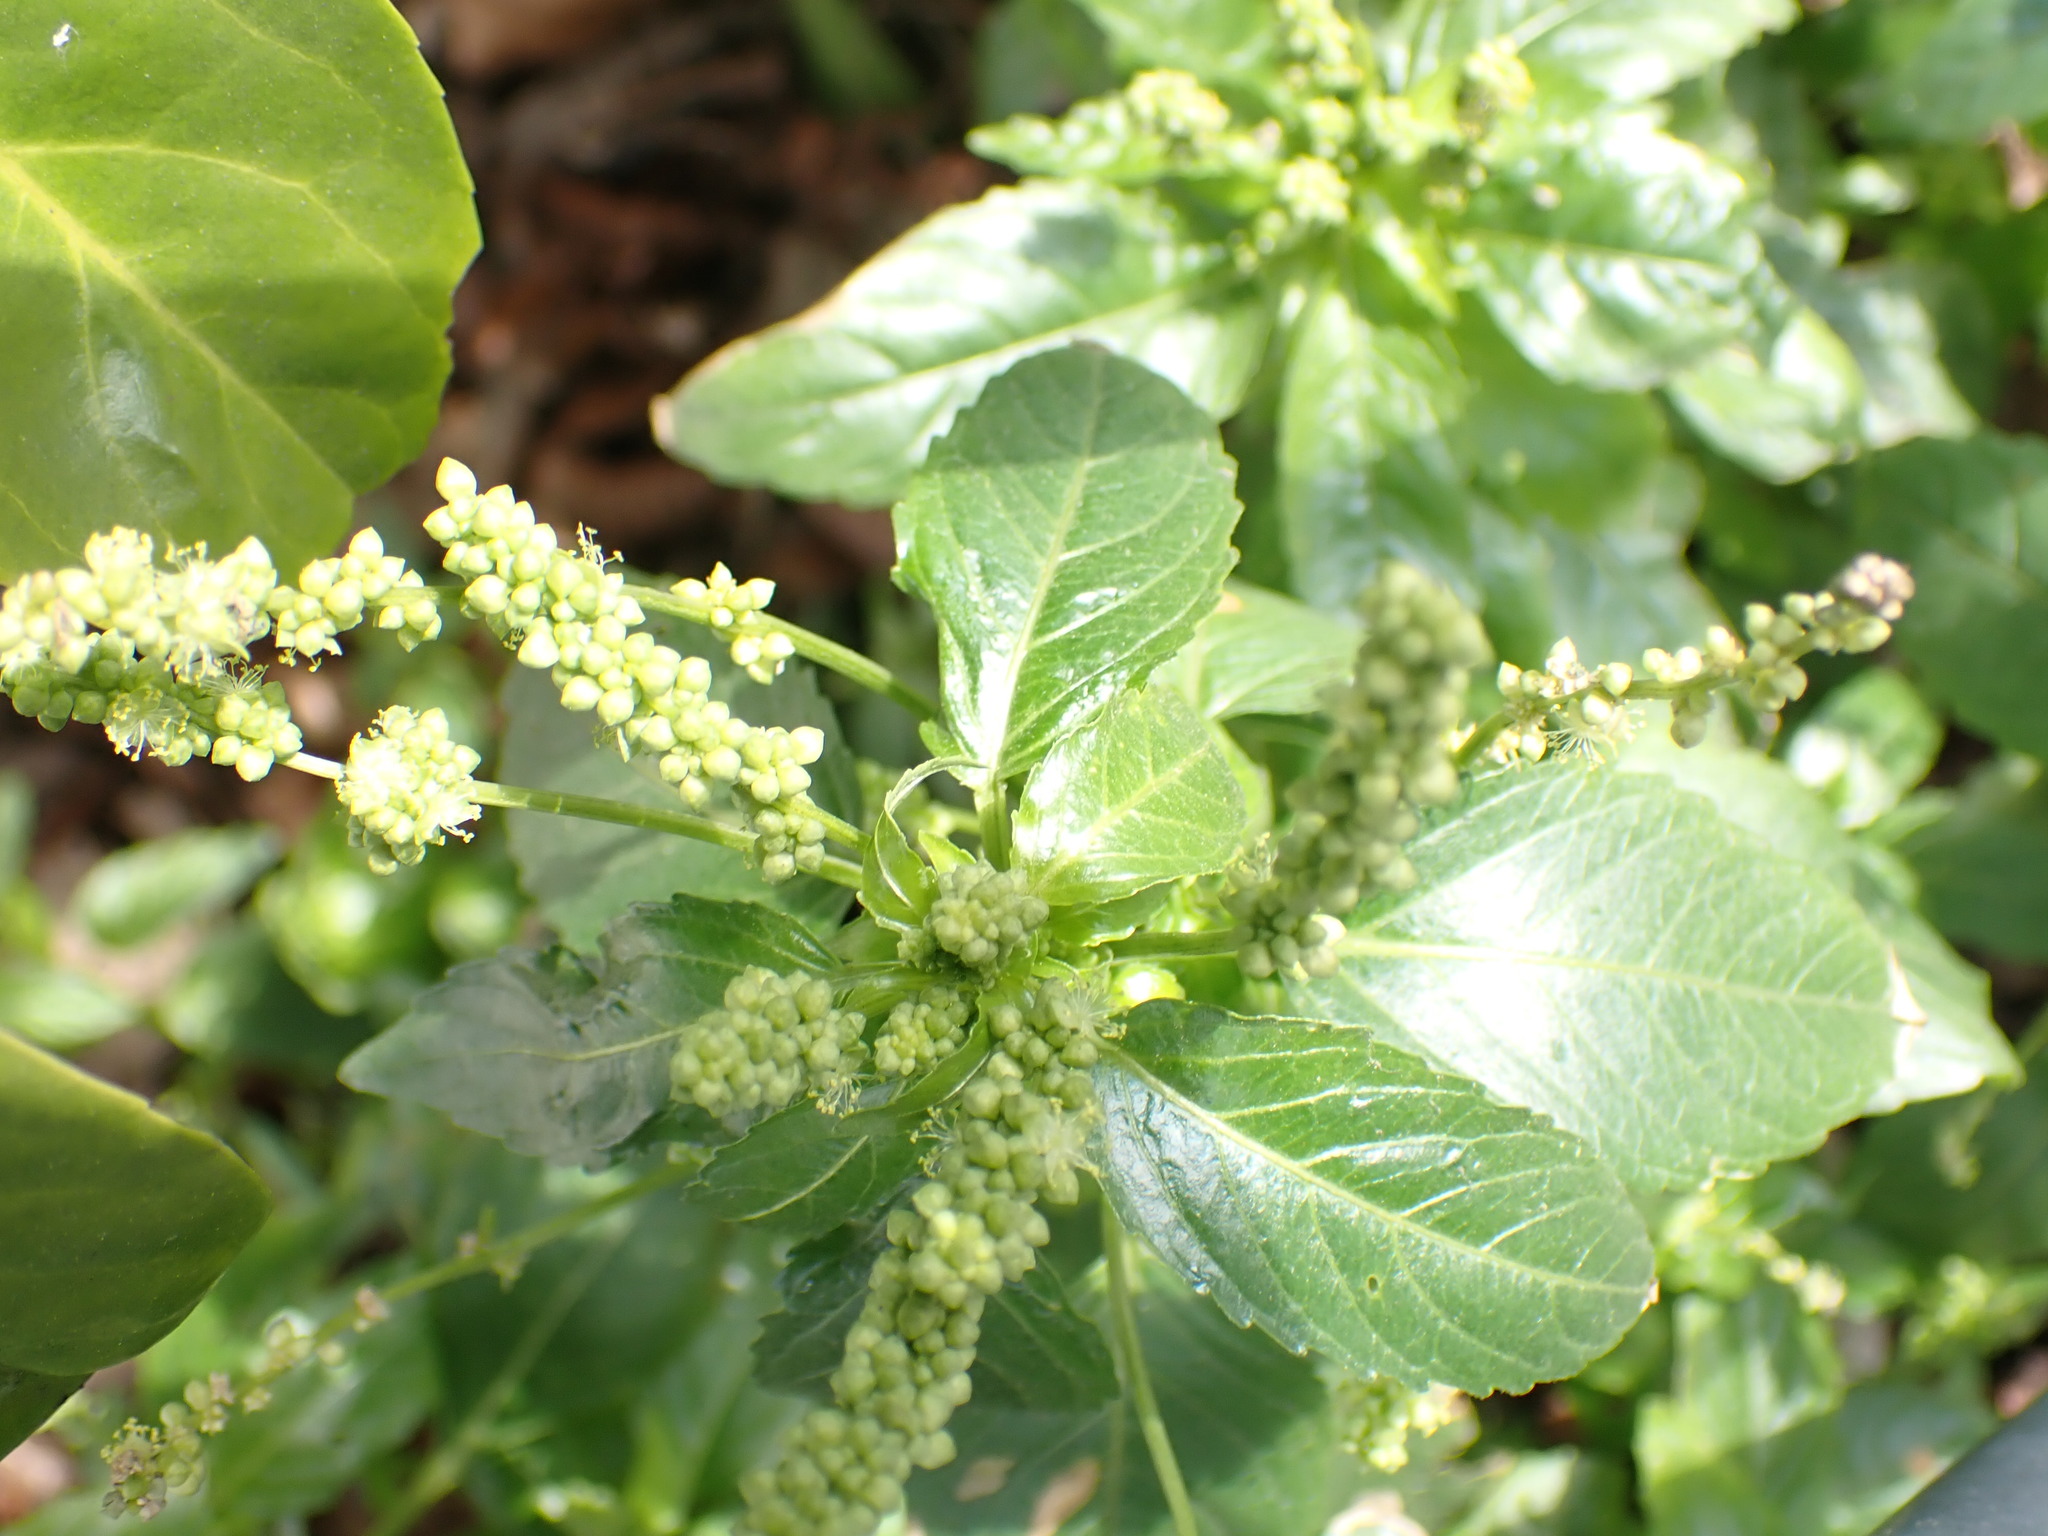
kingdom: Plantae
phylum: Tracheophyta
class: Magnoliopsida
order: Malpighiales
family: Euphorbiaceae
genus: Mercurialis
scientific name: Mercurialis annua
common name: Annual mercury
